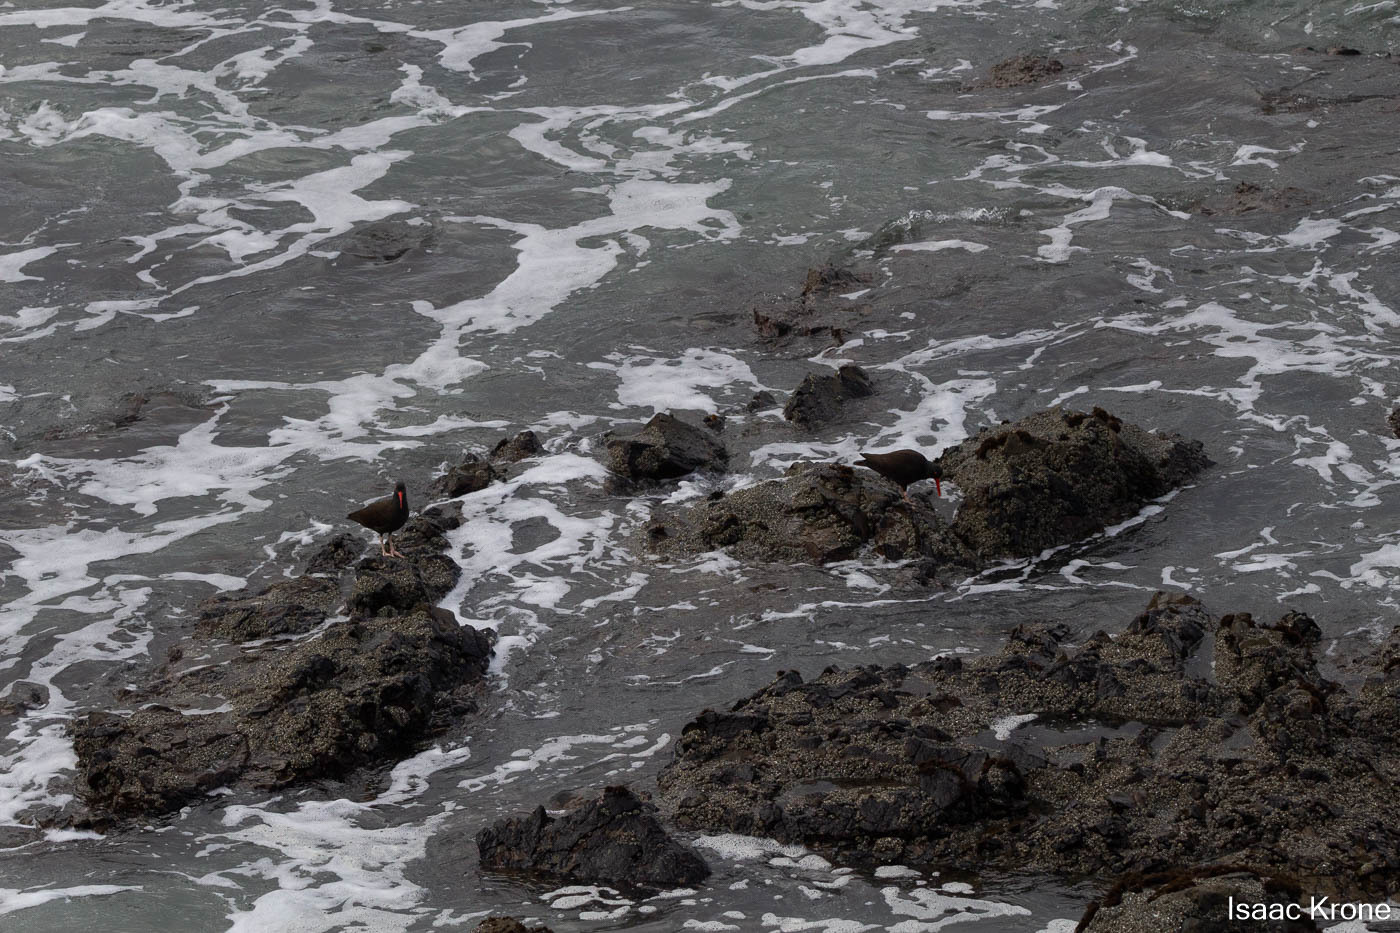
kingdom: Animalia
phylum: Chordata
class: Aves
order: Charadriiformes
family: Haematopodidae
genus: Haematopus
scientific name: Haematopus bachmani
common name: Black oystercatcher
